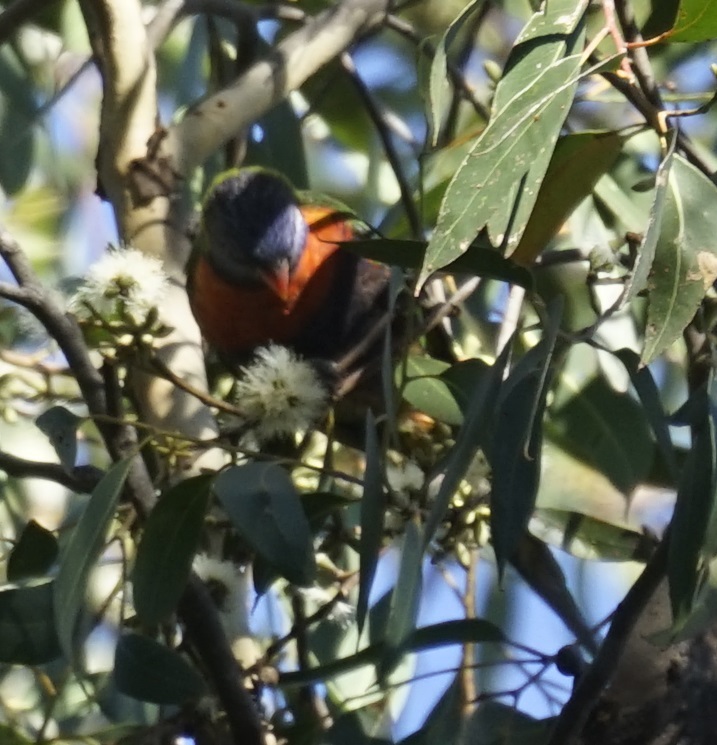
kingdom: Animalia
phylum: Chordata
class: Aves
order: Psittaciformes
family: Psittacidae
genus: Trichoglossus
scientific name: Trichoglossus haematodus
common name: Coconut lorikeet
